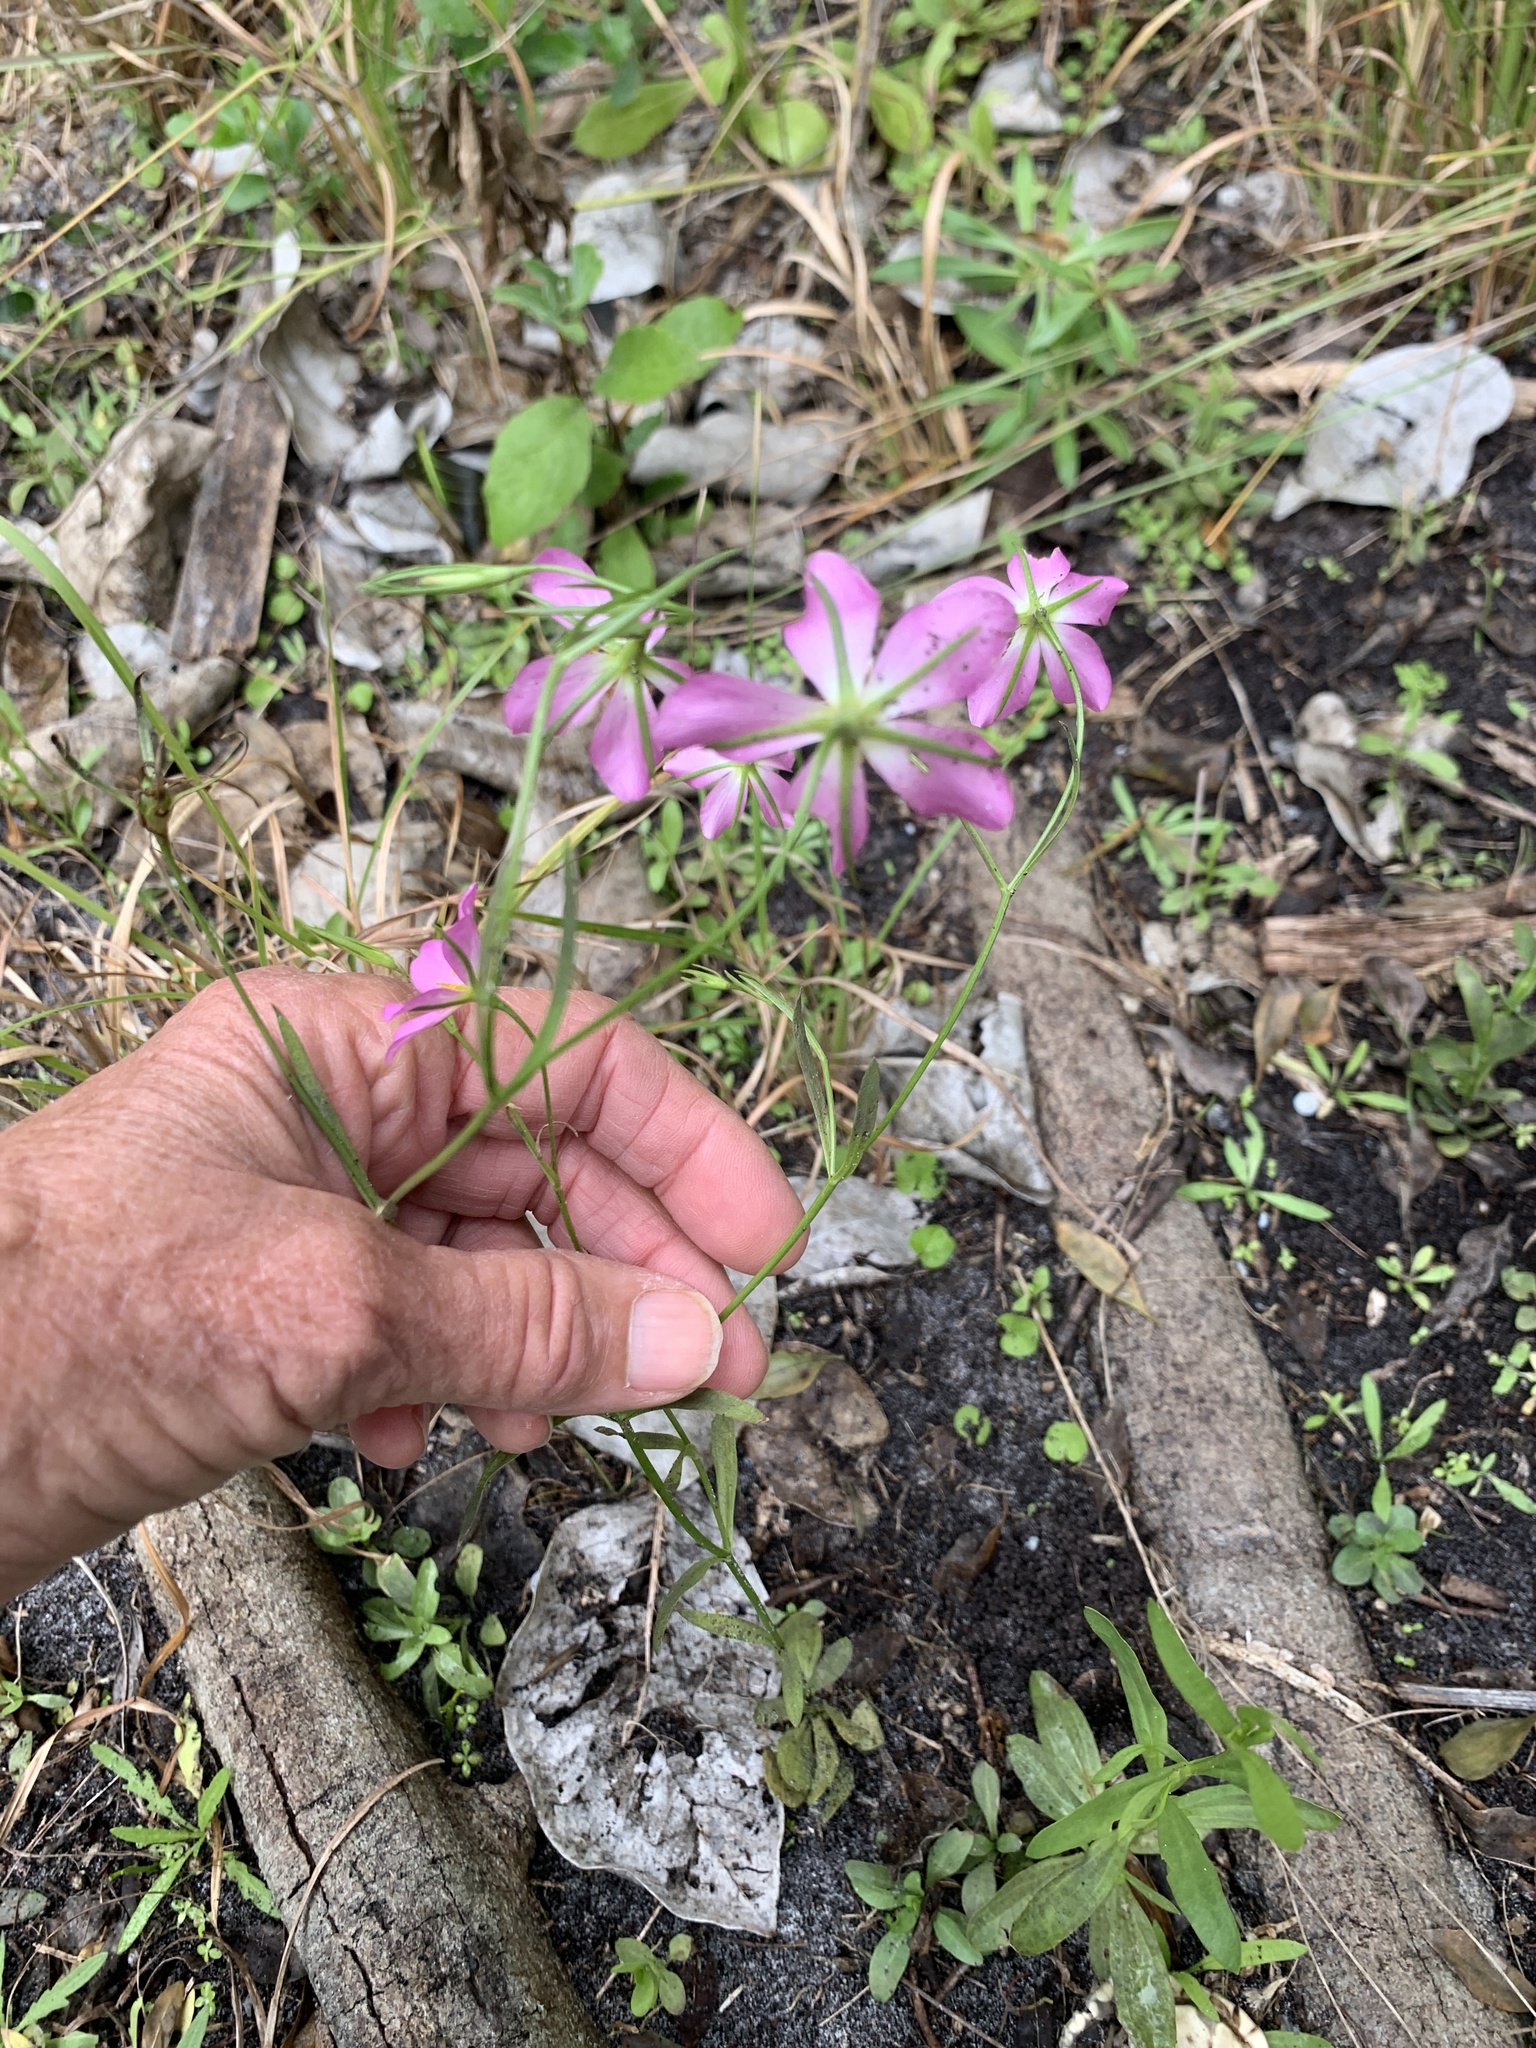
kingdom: Plantae
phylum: Tracheophyta
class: Magnoliopsida
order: Gentianales
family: Gentianaceae
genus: Sabatia
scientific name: Sabatia stellaris
